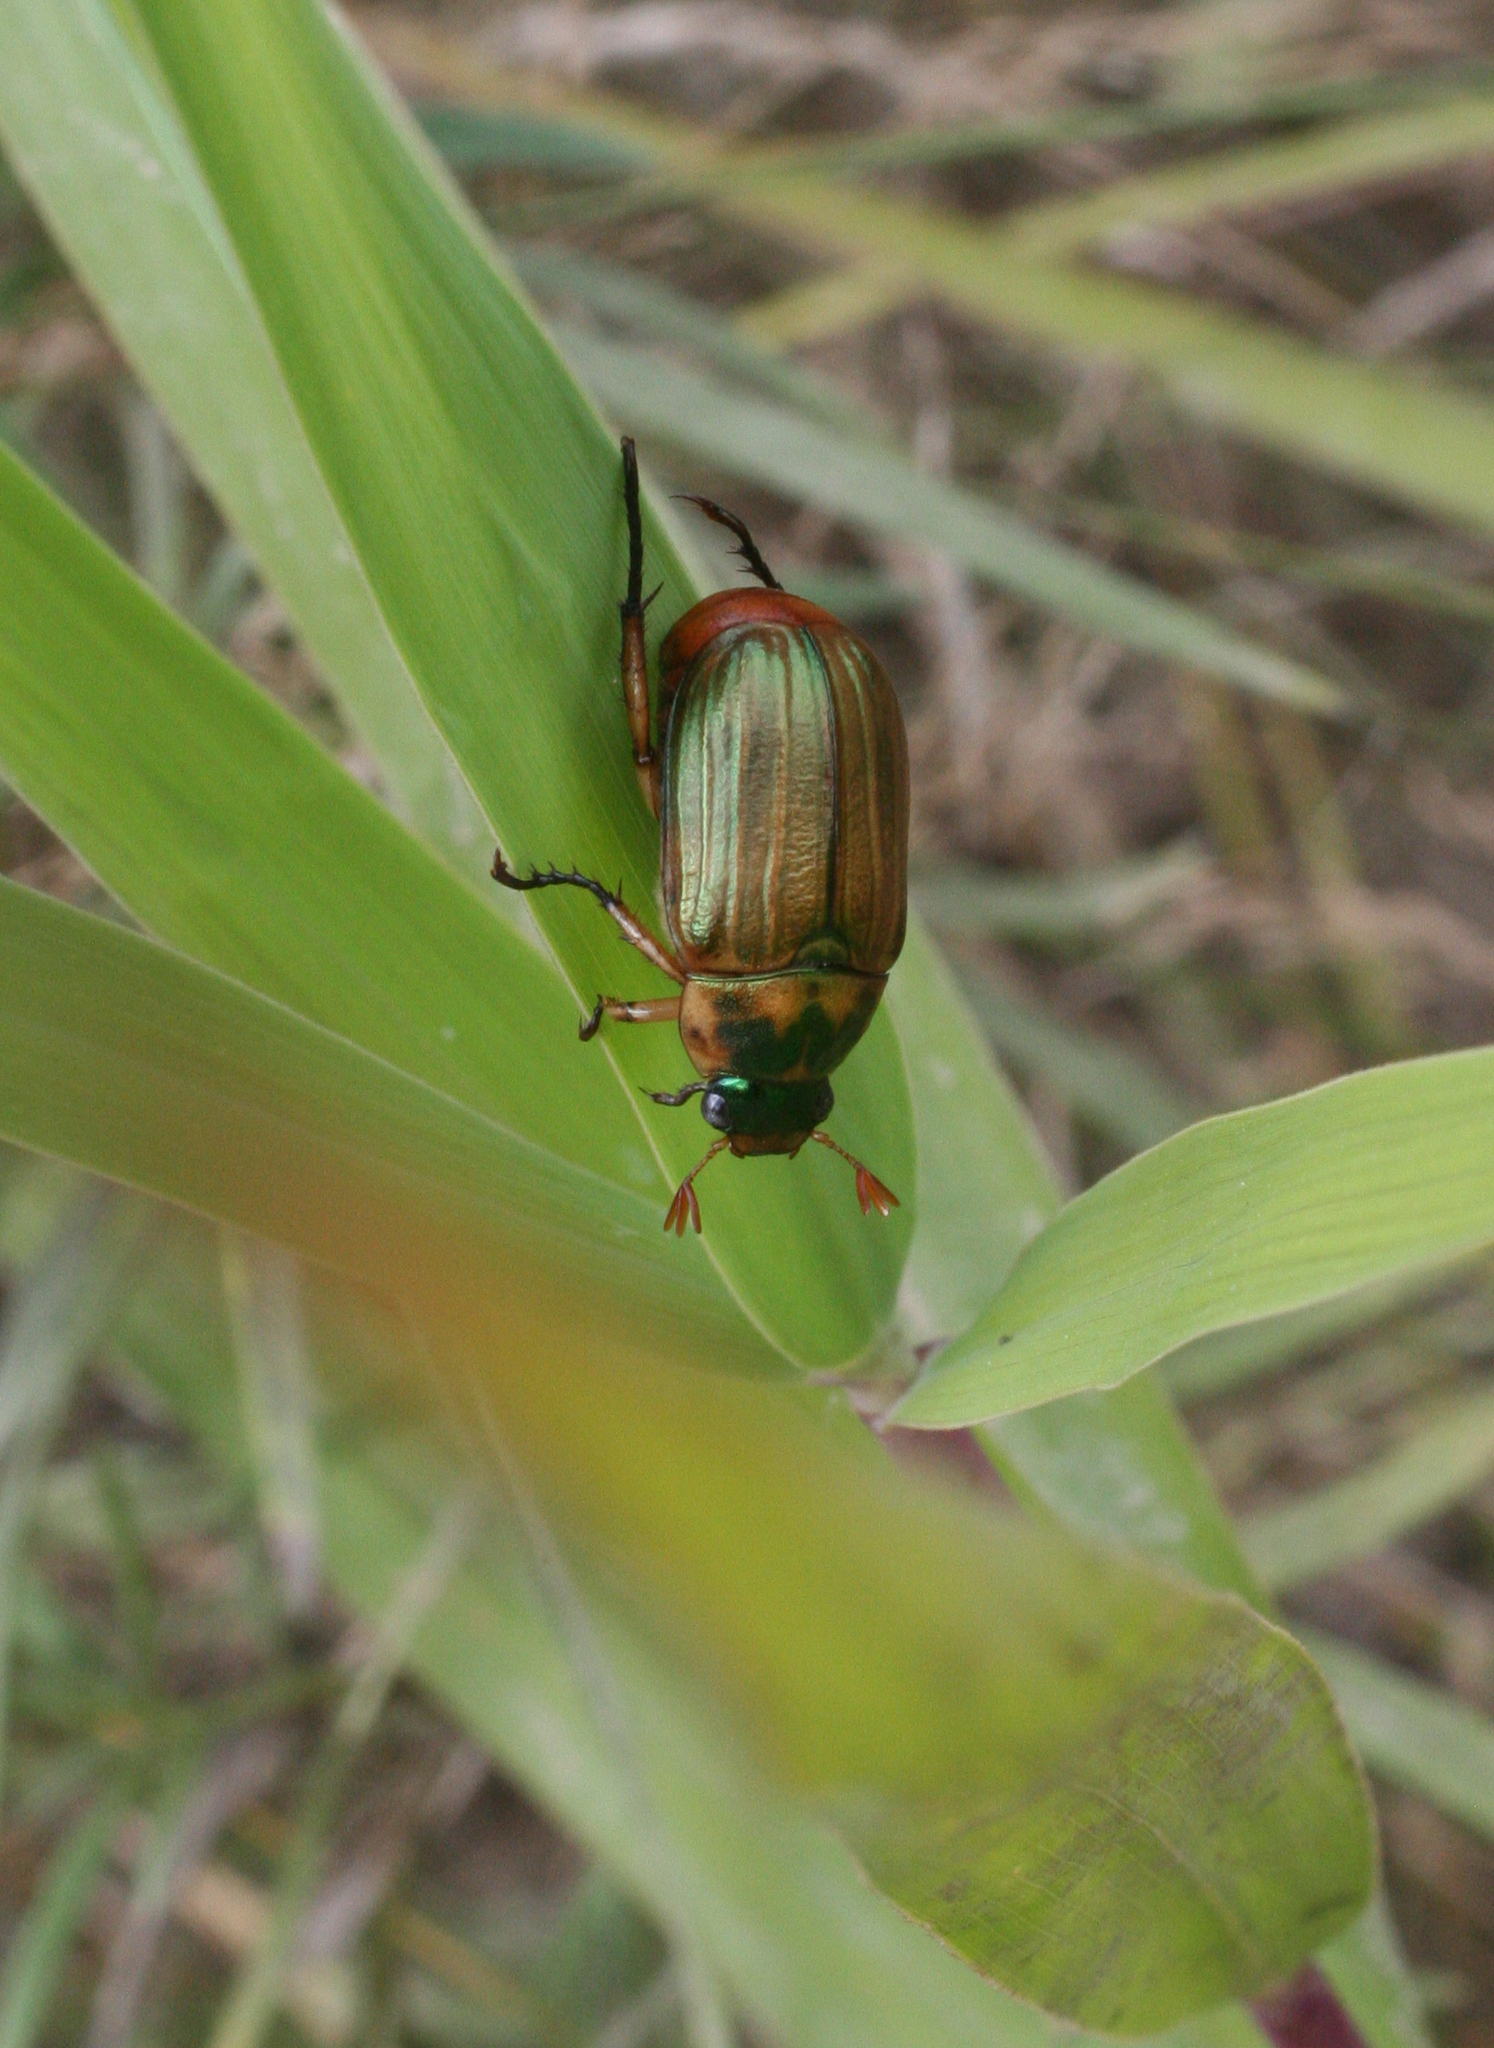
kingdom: Animalia
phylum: Arthropoda
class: Insecta
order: Coleoptera
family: Scarabaeidae
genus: Mimela
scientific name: Mimela testaceipes
